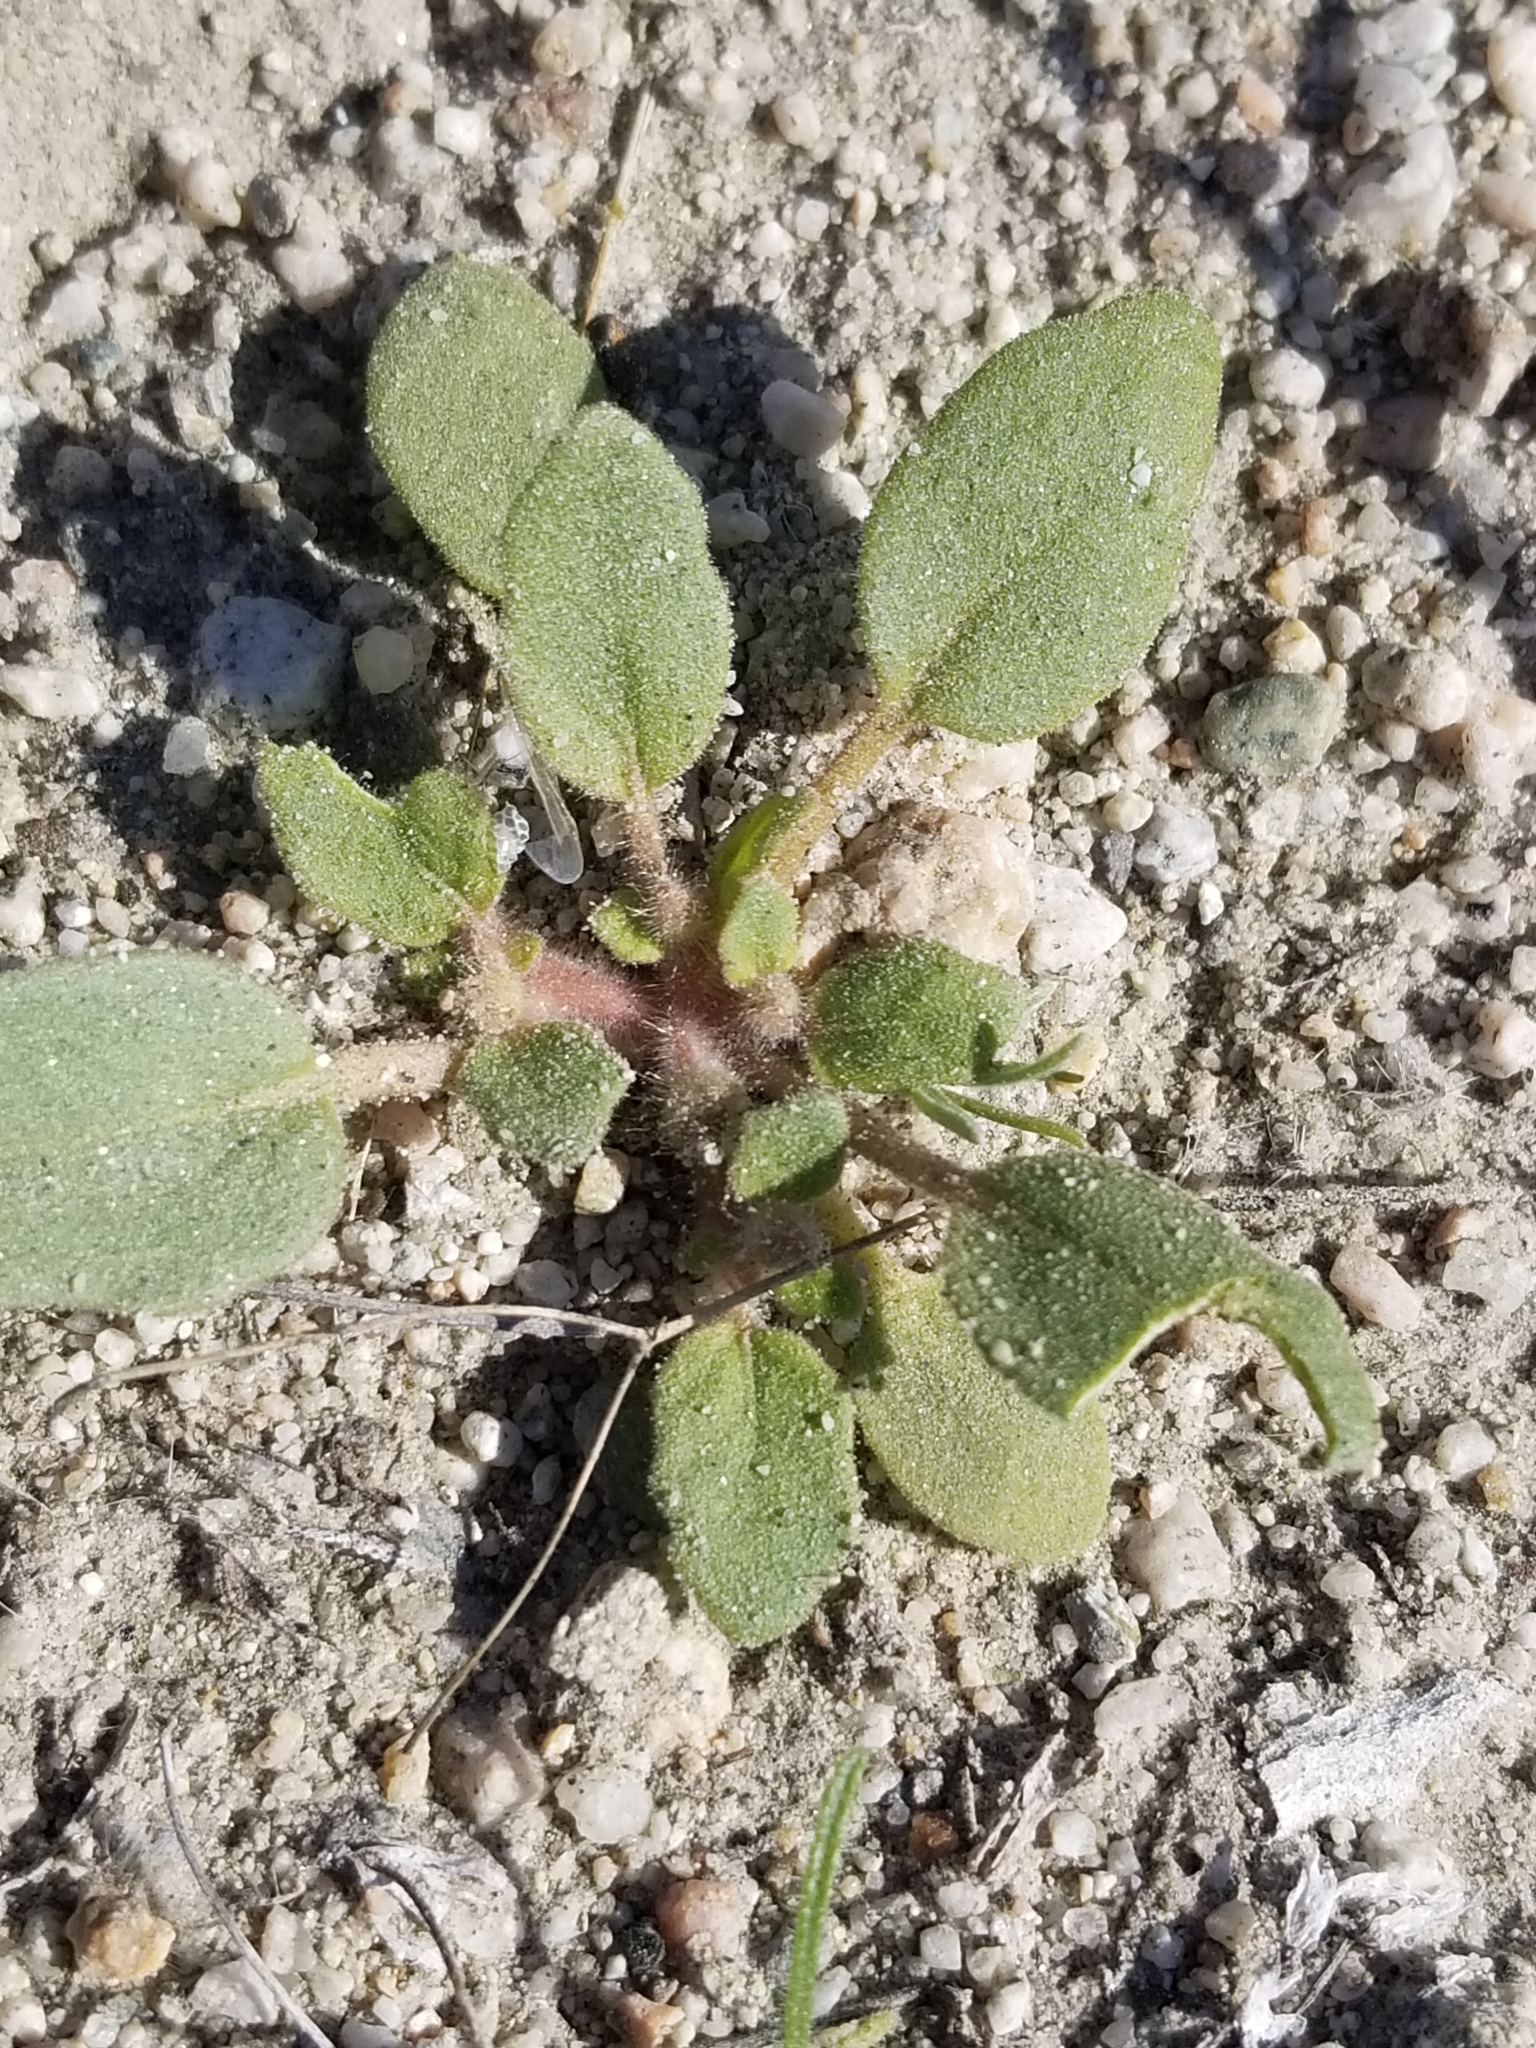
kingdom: Plantae
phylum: Tracheophyta
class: Magnoliopsida
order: Caryophyllales
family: Nyctaginaceae
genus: Abronia
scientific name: Abronia villosa
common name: Desert sand-verbena
